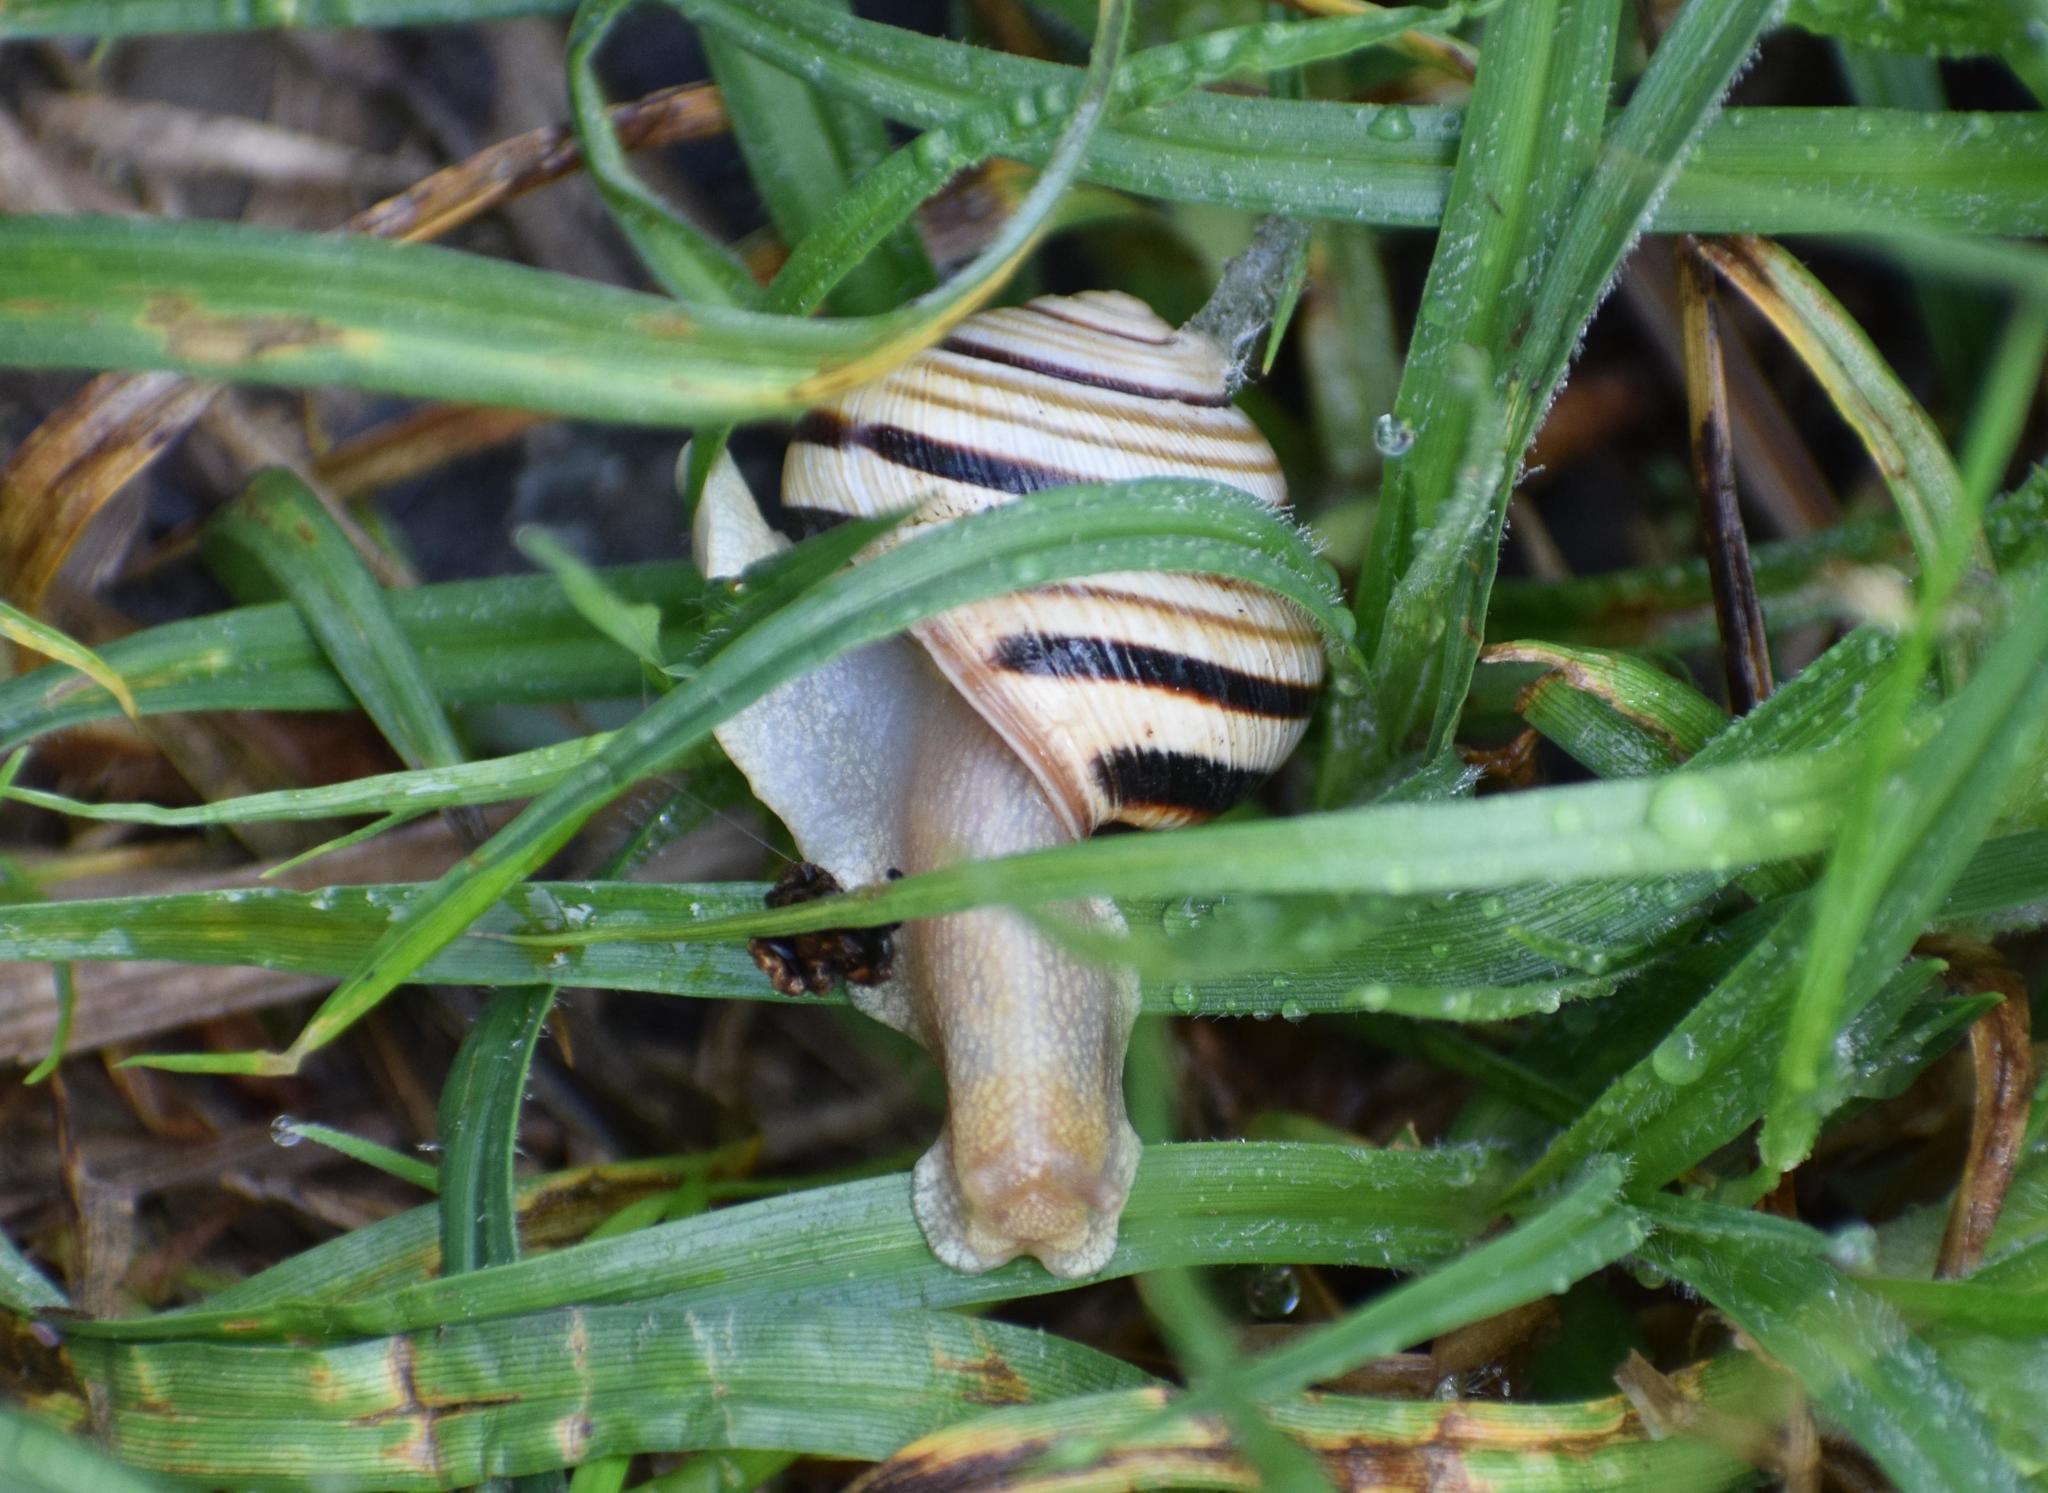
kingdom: Animalia
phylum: Mollusca
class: Gastropoda
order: Stylommatophora
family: Helicidae
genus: Caucasotachea
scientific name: Caucasotachea vindobonensis
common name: European helicid land snail
